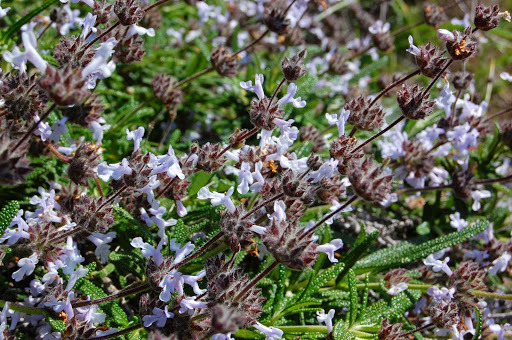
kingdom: Plantae
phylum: Tracheophyta
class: Magnoliopsida
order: Lamiales
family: Lamiaceae
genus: Salvia
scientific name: Salvia brandegeei
